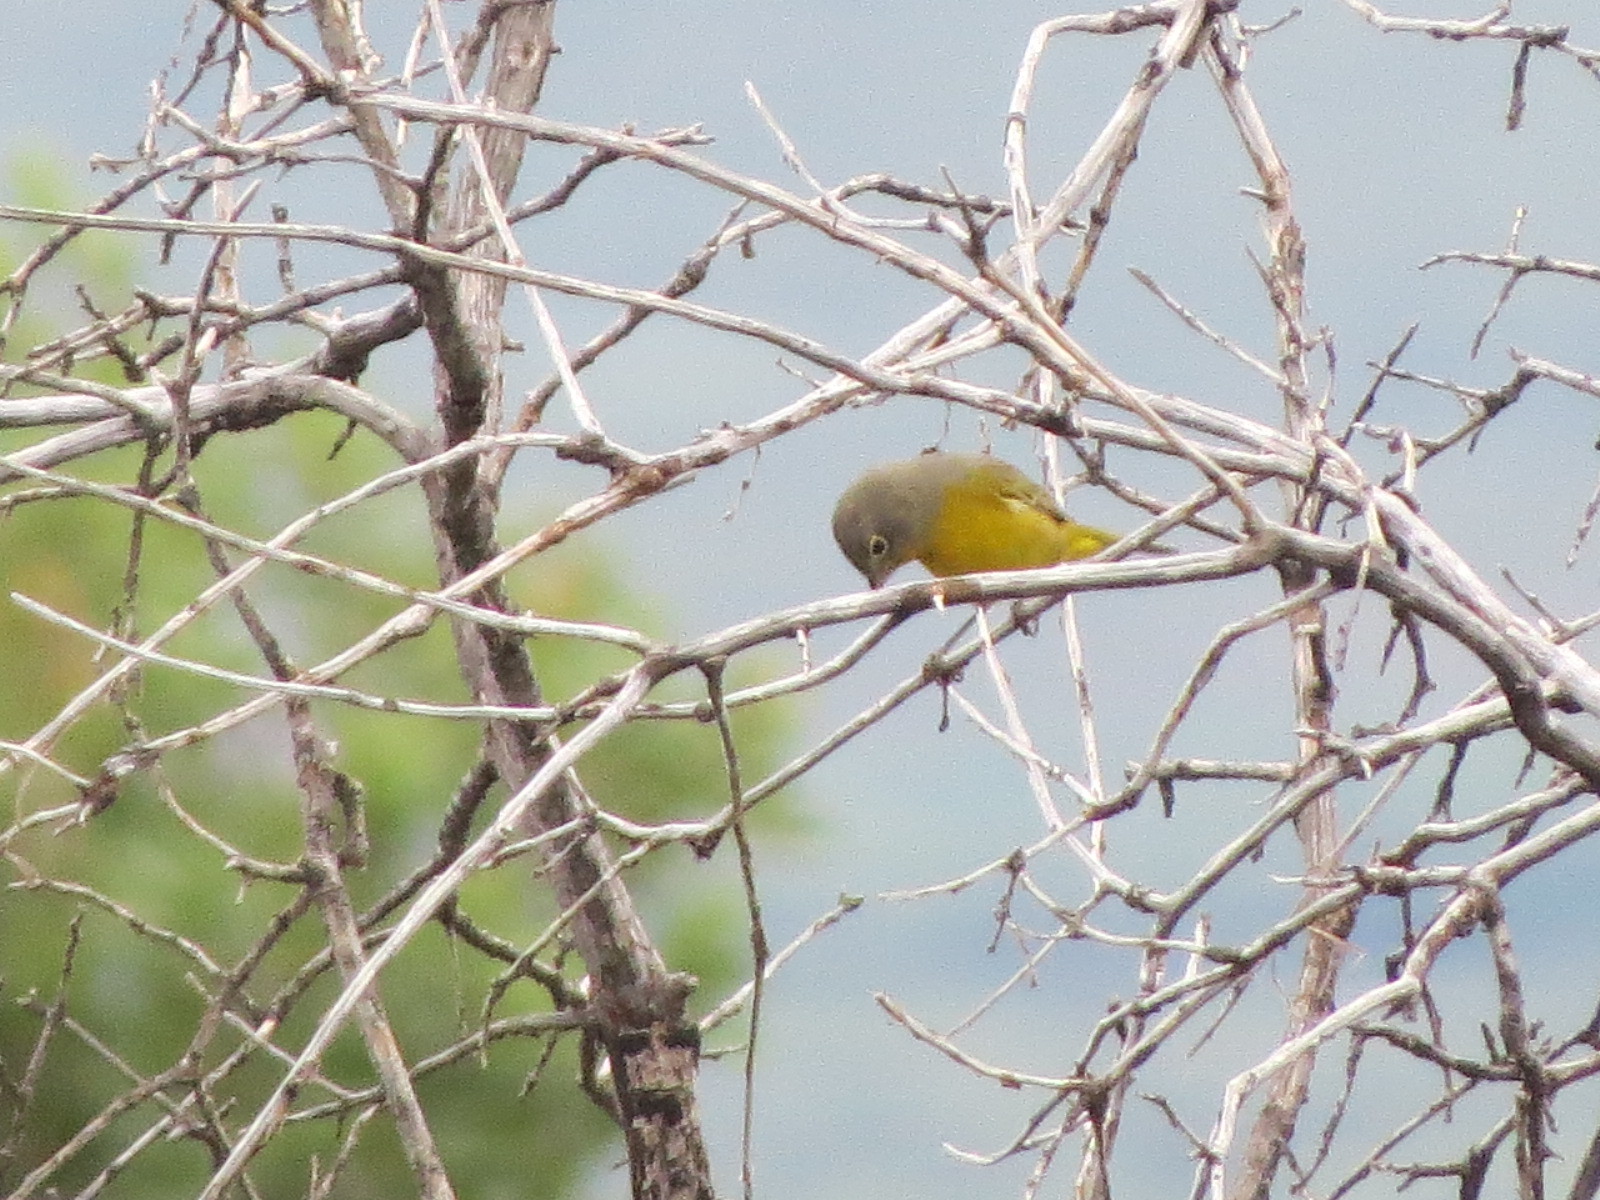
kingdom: Animalia
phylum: Chordata
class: Aves
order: Passeriformes
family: Parulidae
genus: Leiothlypis
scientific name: Leiothlypis ruficapilla
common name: Nashville warbler
